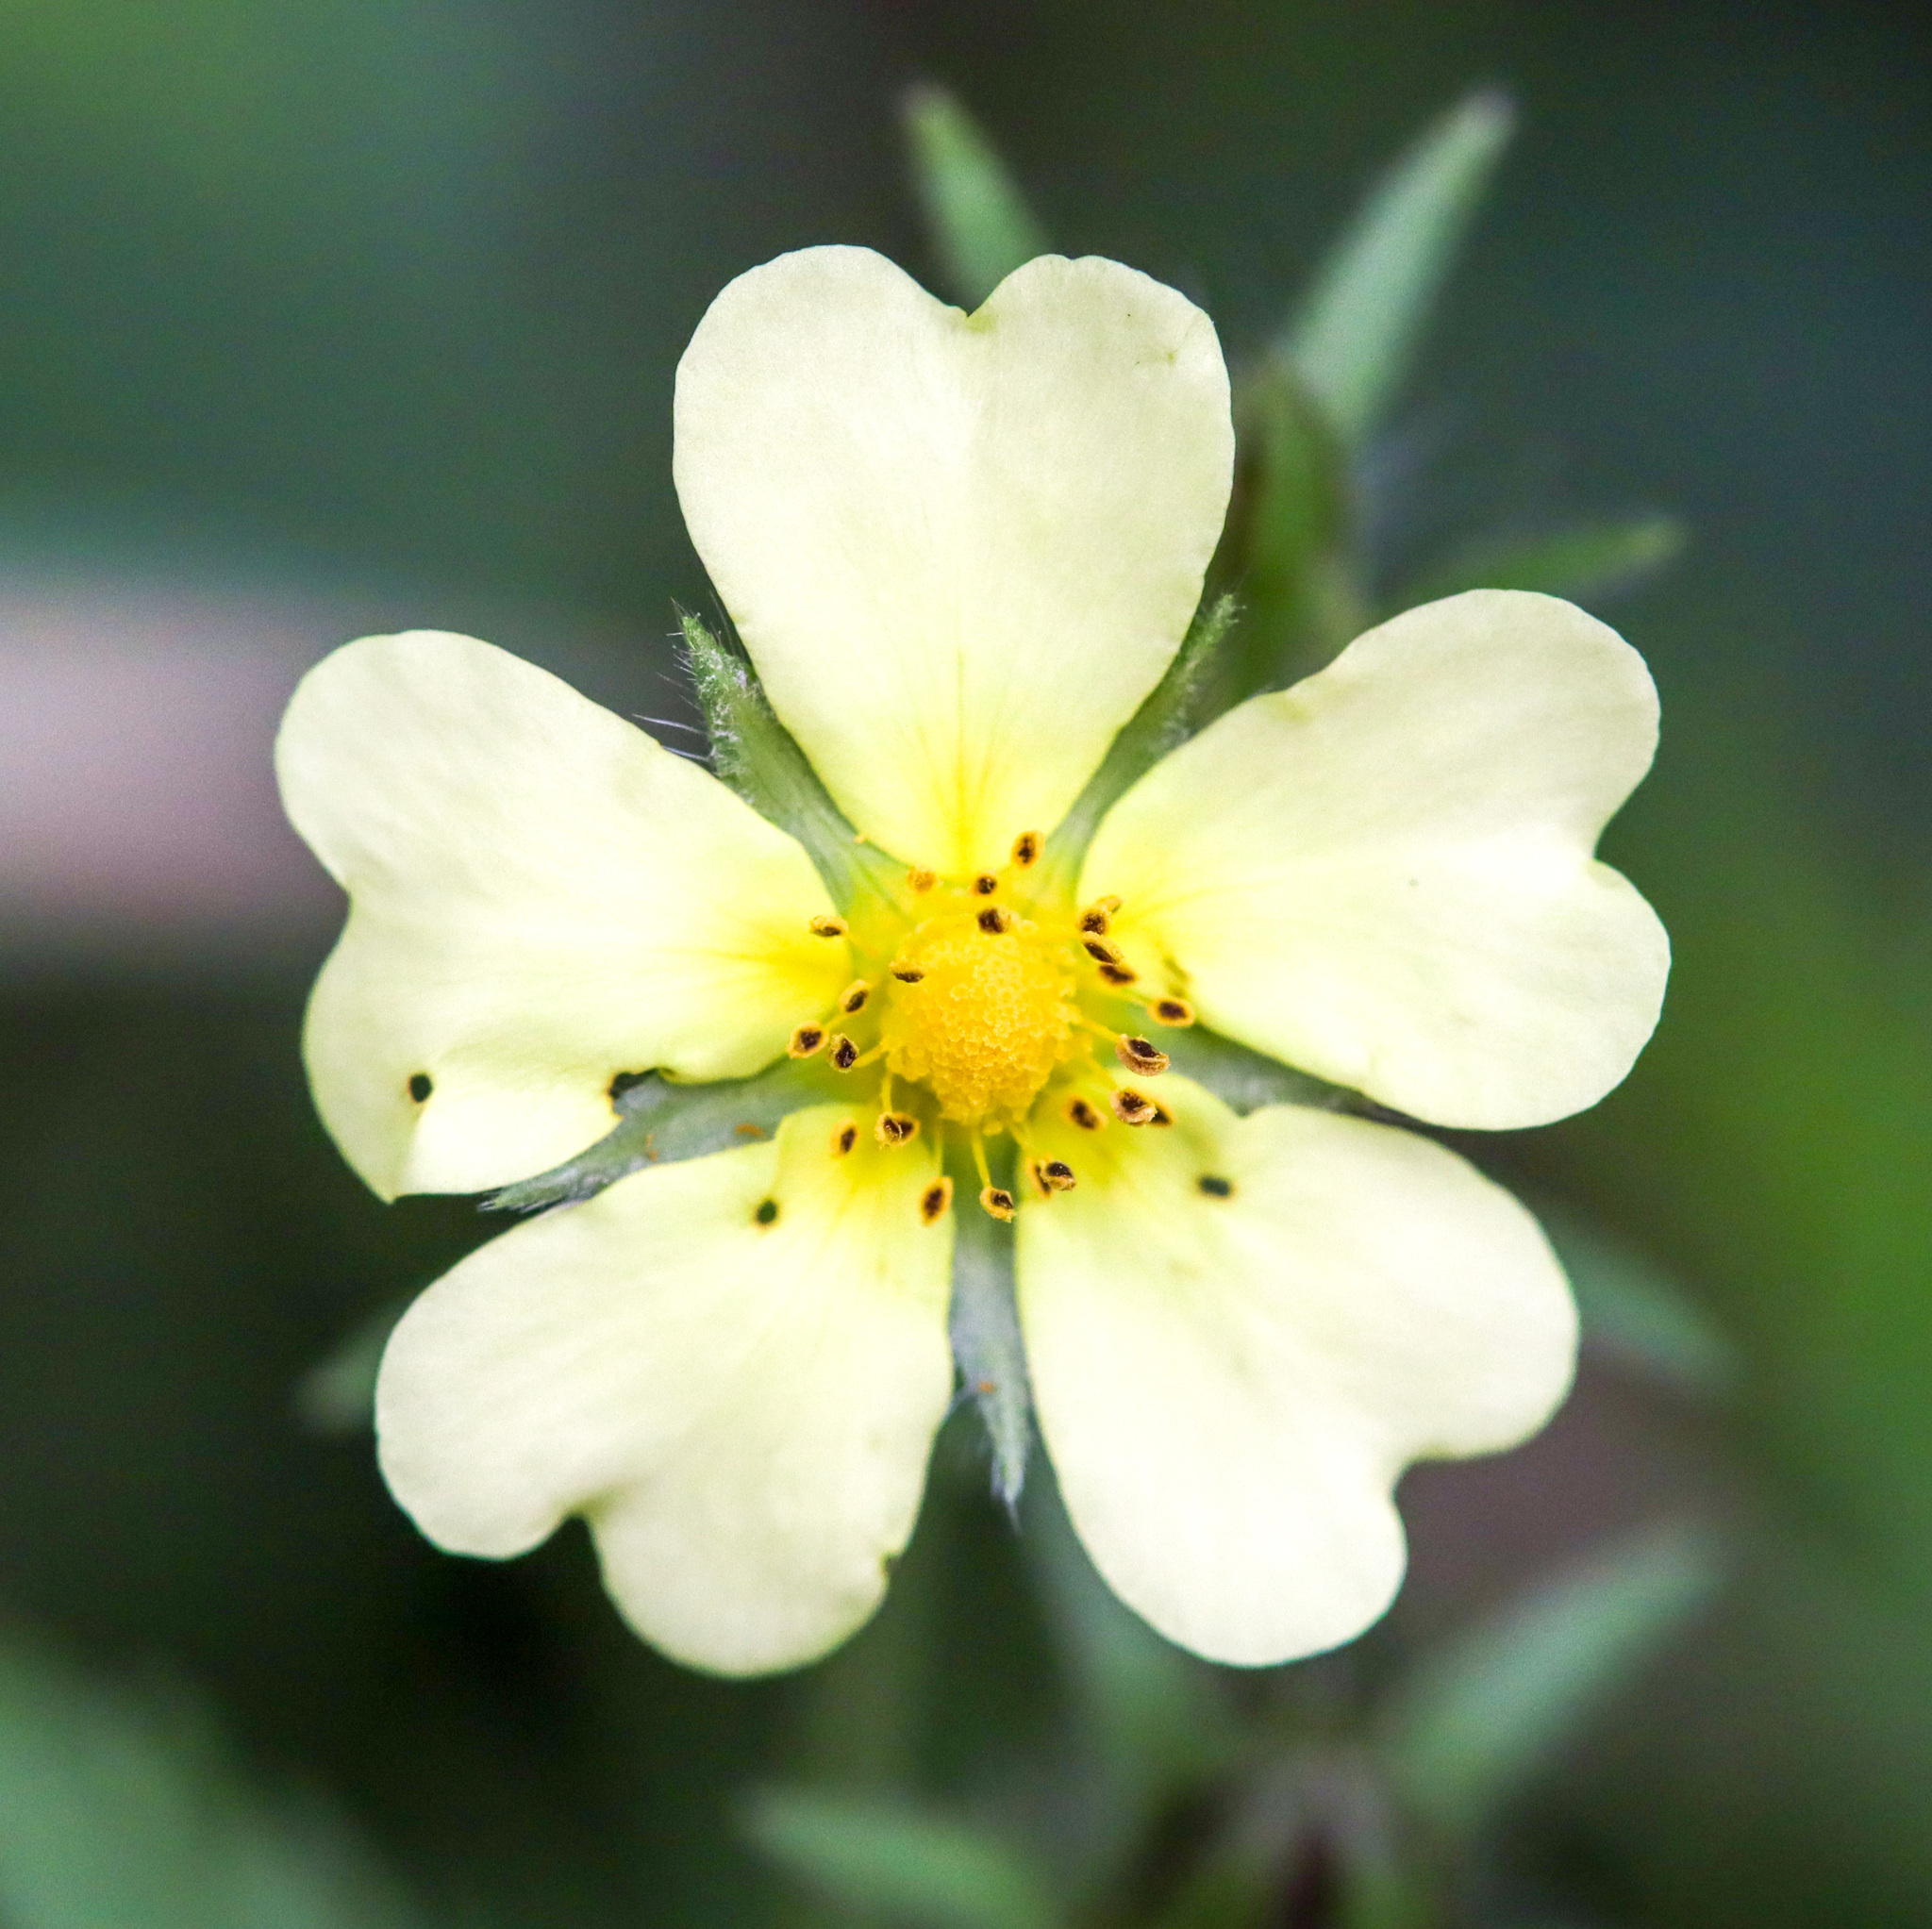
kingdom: Plantae
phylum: Tracheophyta
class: Magnoliopsida
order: Rosales
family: Rosaceae
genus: Potentilla
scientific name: Potentilla recta
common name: Sulphur cinquefoil
